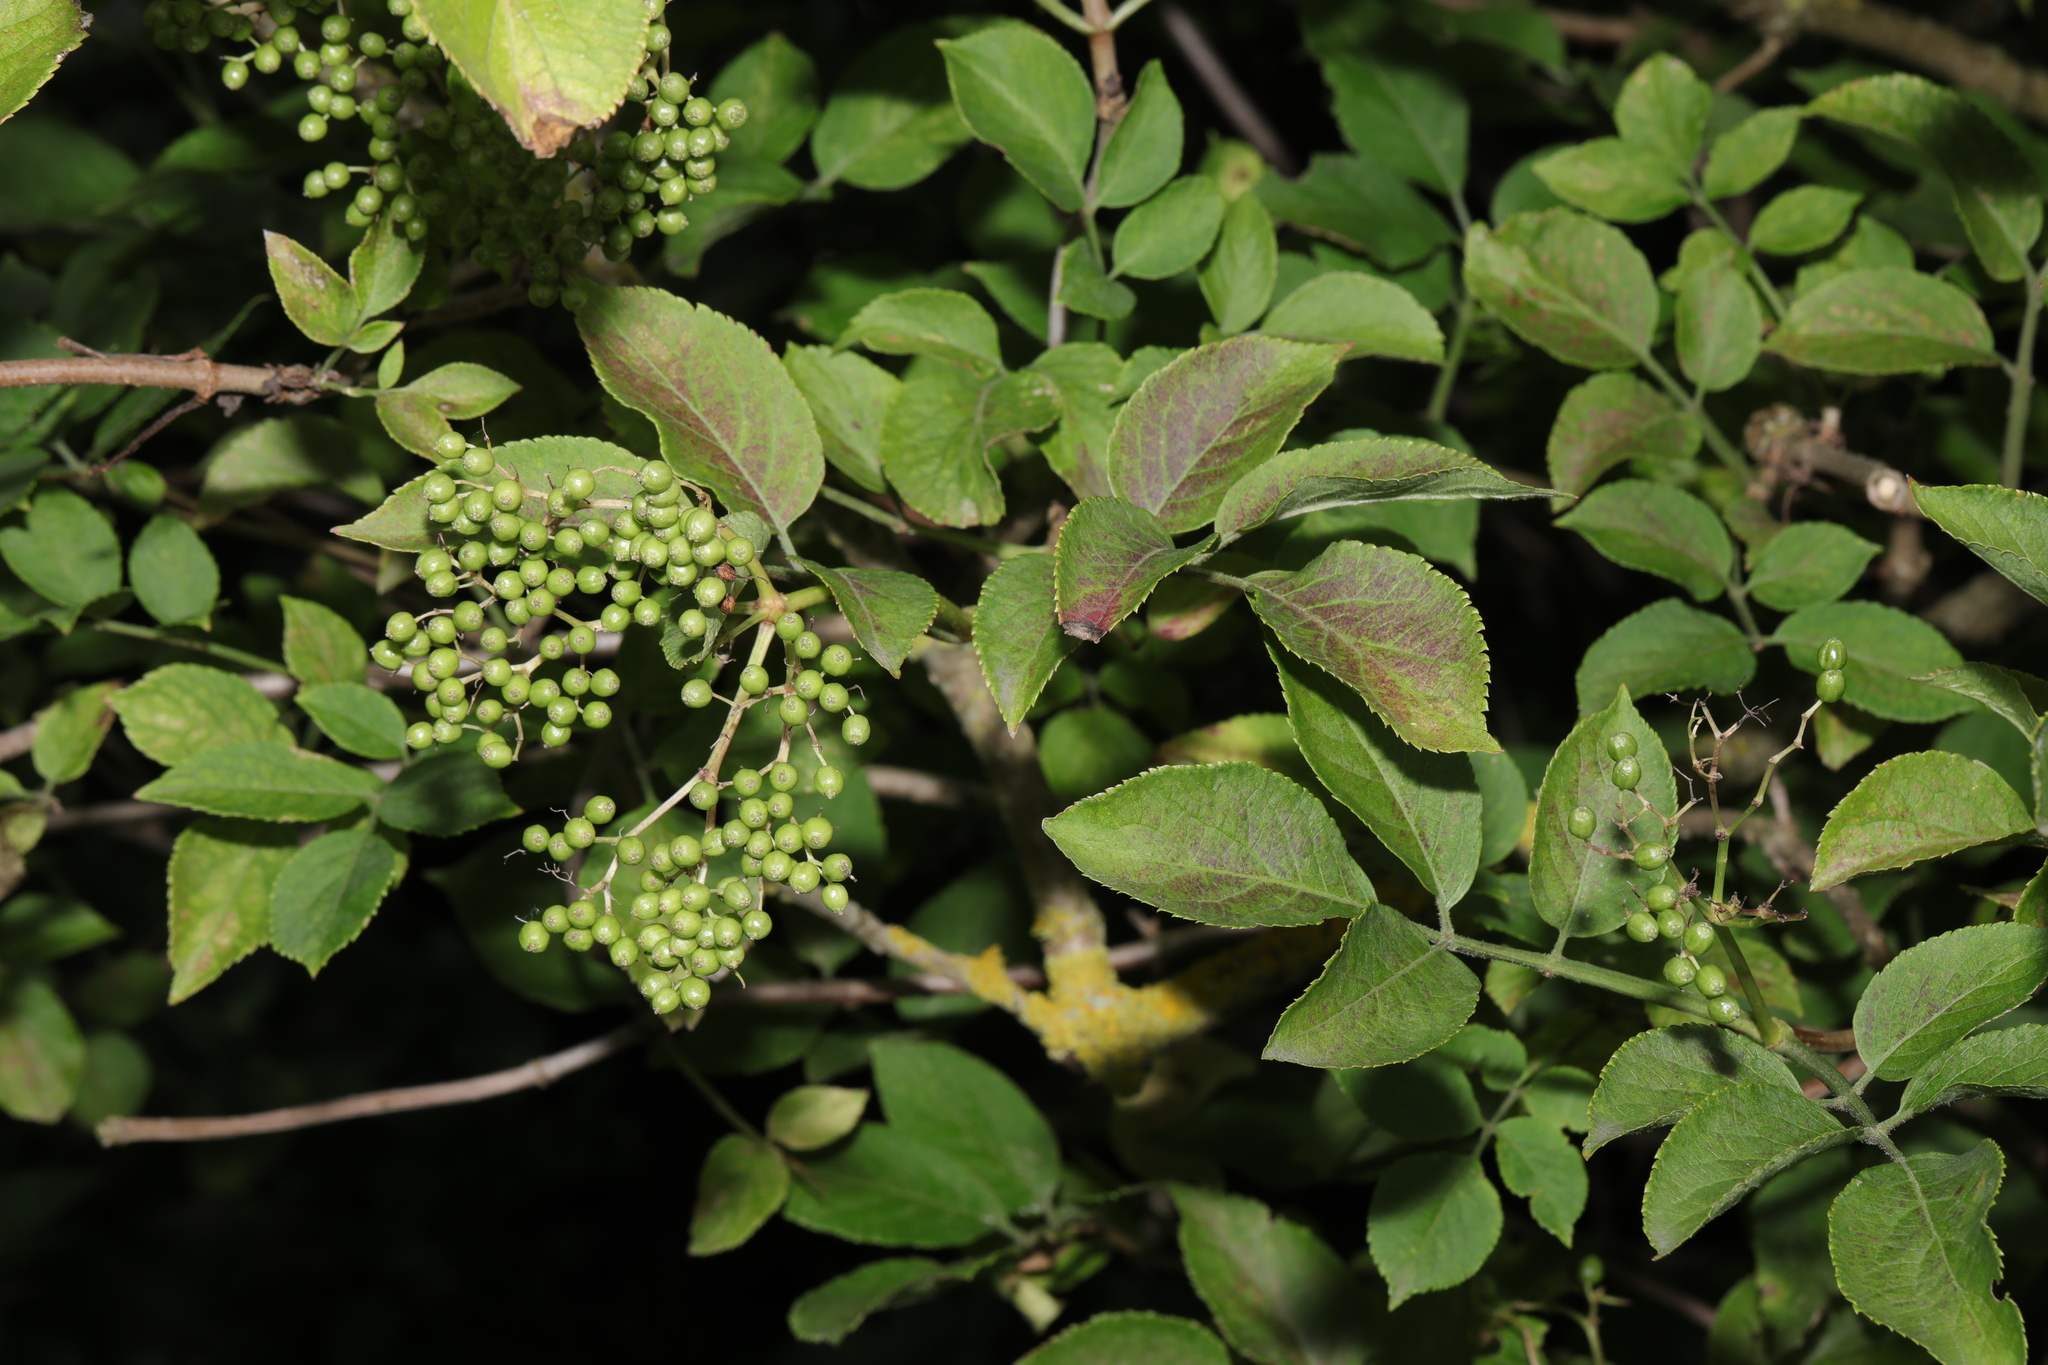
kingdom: Plantae
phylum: Tracheophyta
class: Magnoliopsida
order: Dipsacales
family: Viburnaceae
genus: Sambucus
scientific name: Sambucus nigra
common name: Elder
